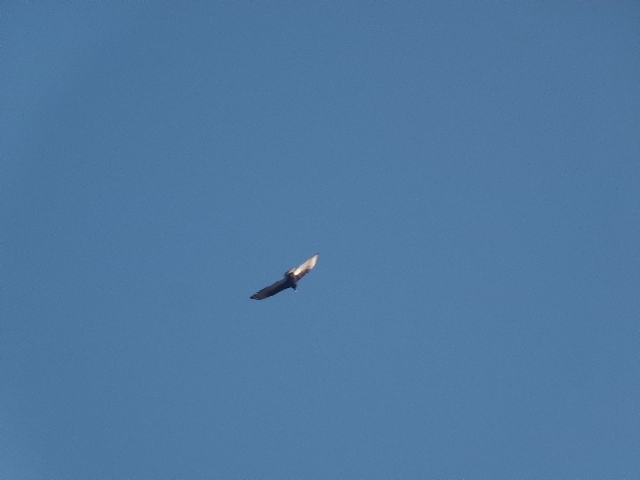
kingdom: Animalia
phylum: Chordata
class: Aves
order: Accipitriformes
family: Cathartidae
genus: Cathartes
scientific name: Cathartes aura
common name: Turkey vulture
